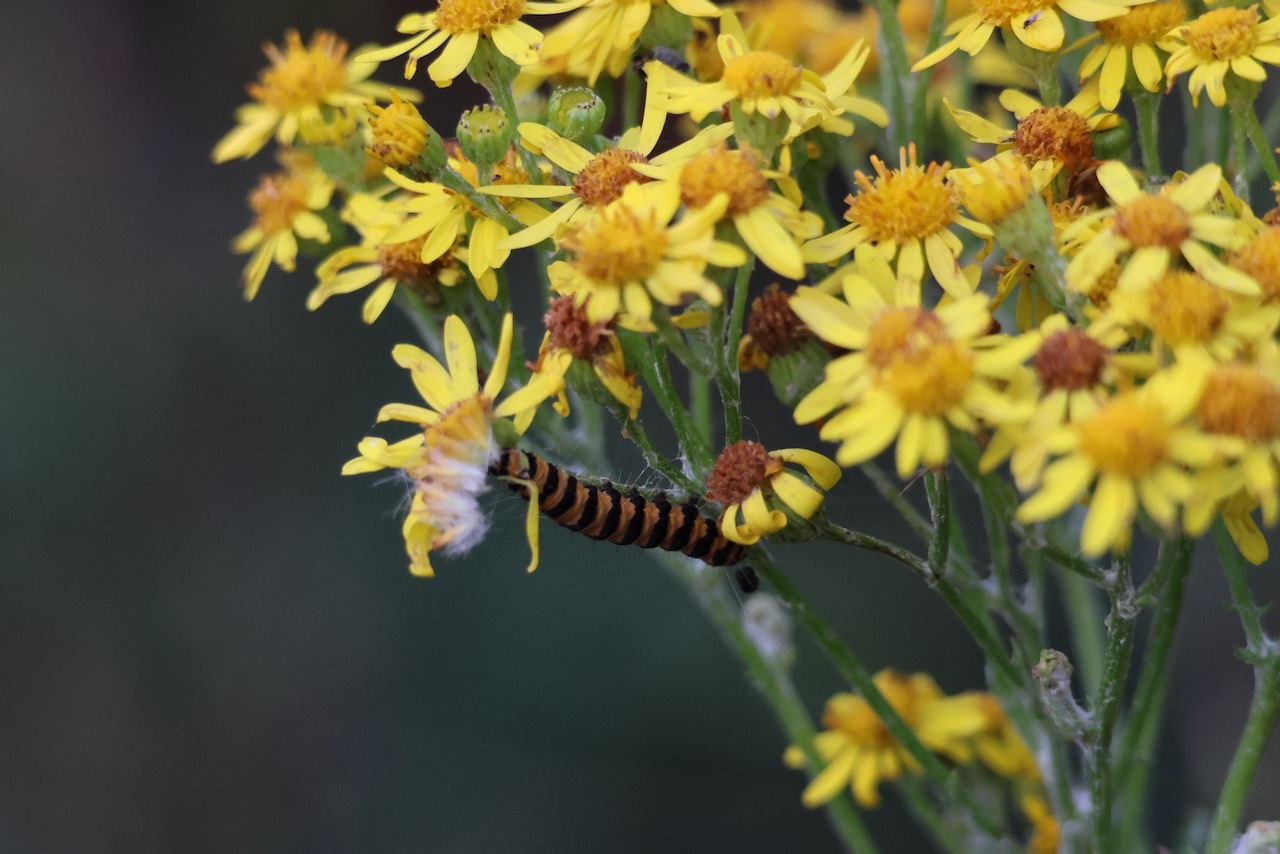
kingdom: Animalia
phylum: Arthropoda
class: Insecta
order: Lepidoptera
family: Erebidae
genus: Tyria
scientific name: Tyria jacobaeae
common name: Cinnabar
